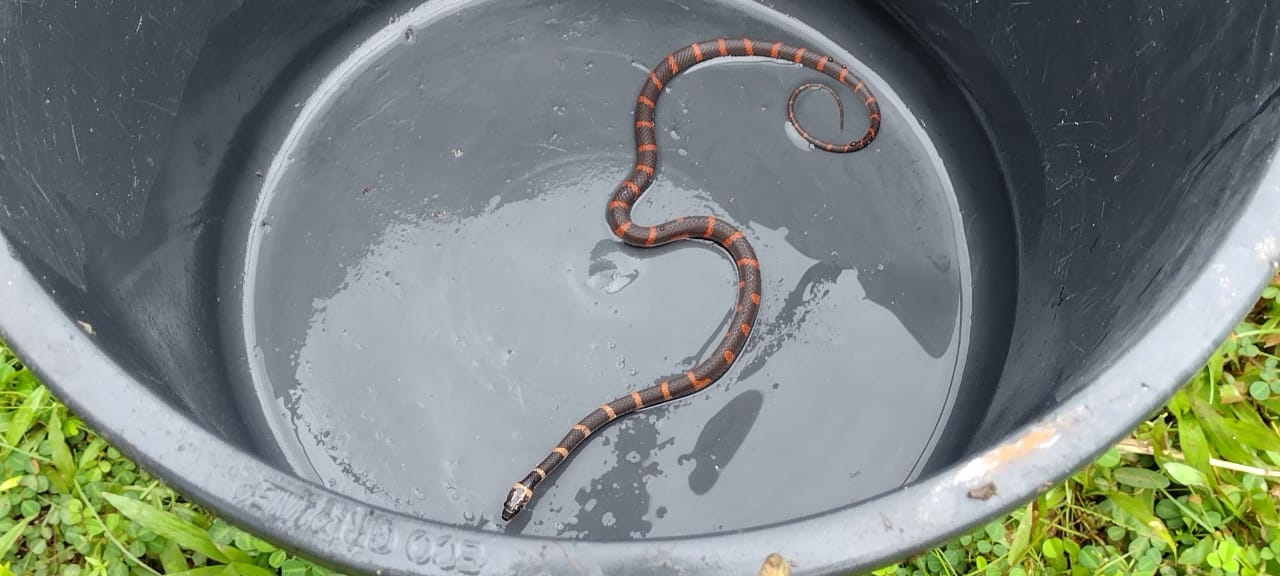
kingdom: Animalia
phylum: Chordata
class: Squamata
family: Colubridae
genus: Oxyrhopus
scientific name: Oxyrhopus petolarius
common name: Forest flame snake
